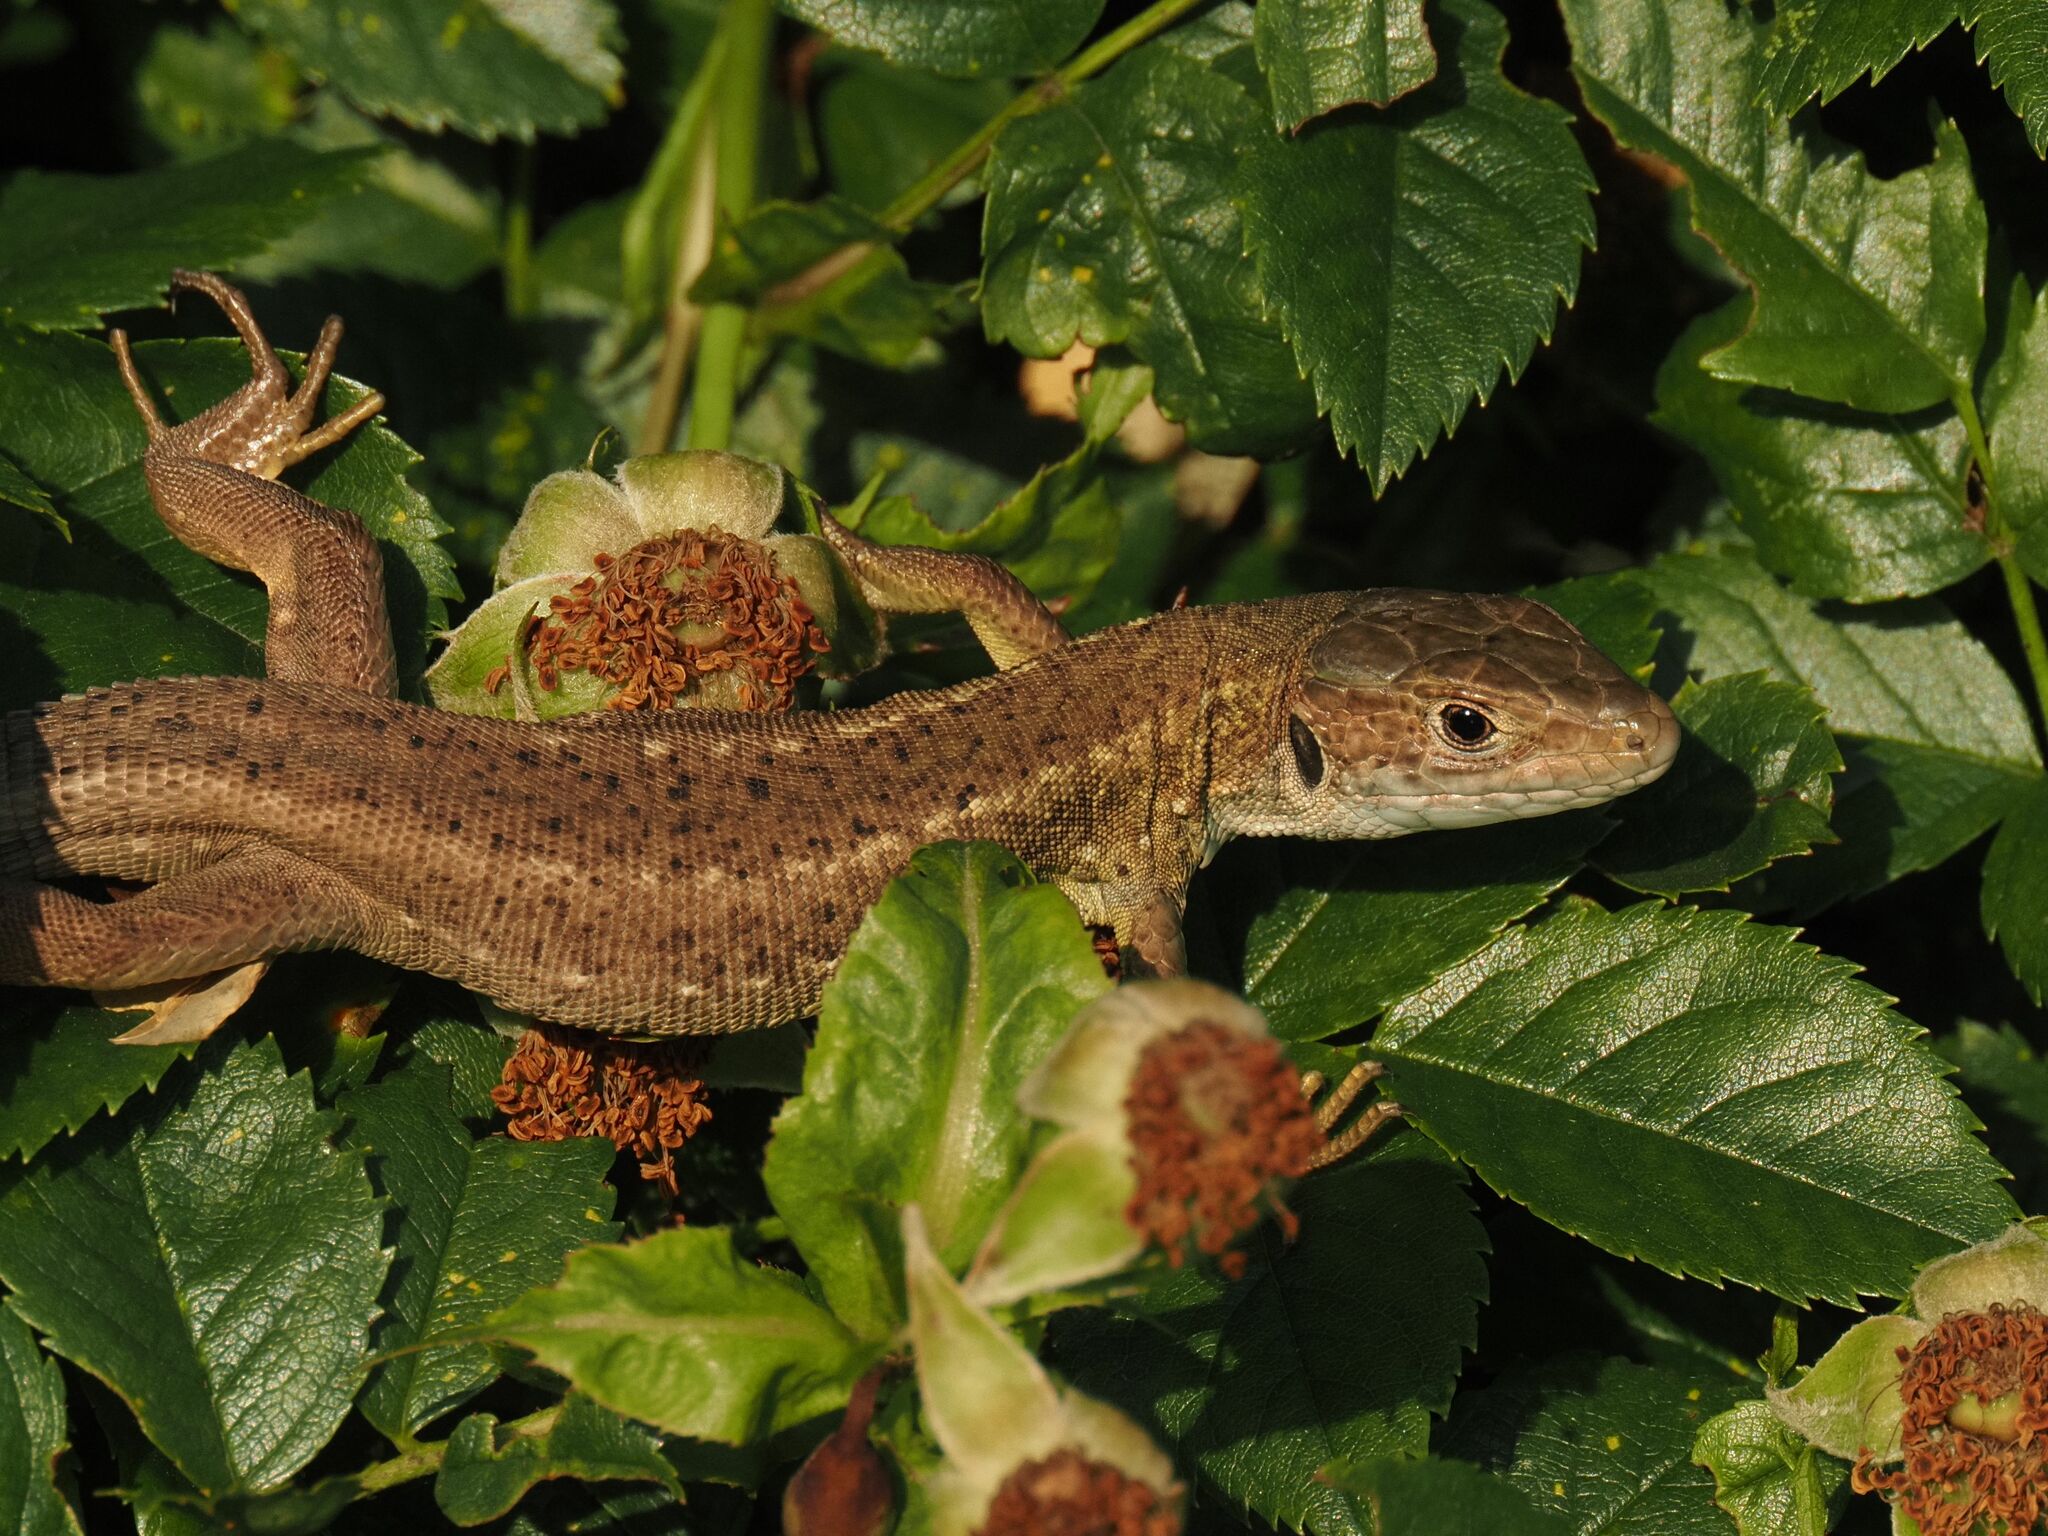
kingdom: Animalia
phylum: Chordata
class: Squamata
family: Lacertidae
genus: Lacerta
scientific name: Lacerta viridis
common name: European green lizard
